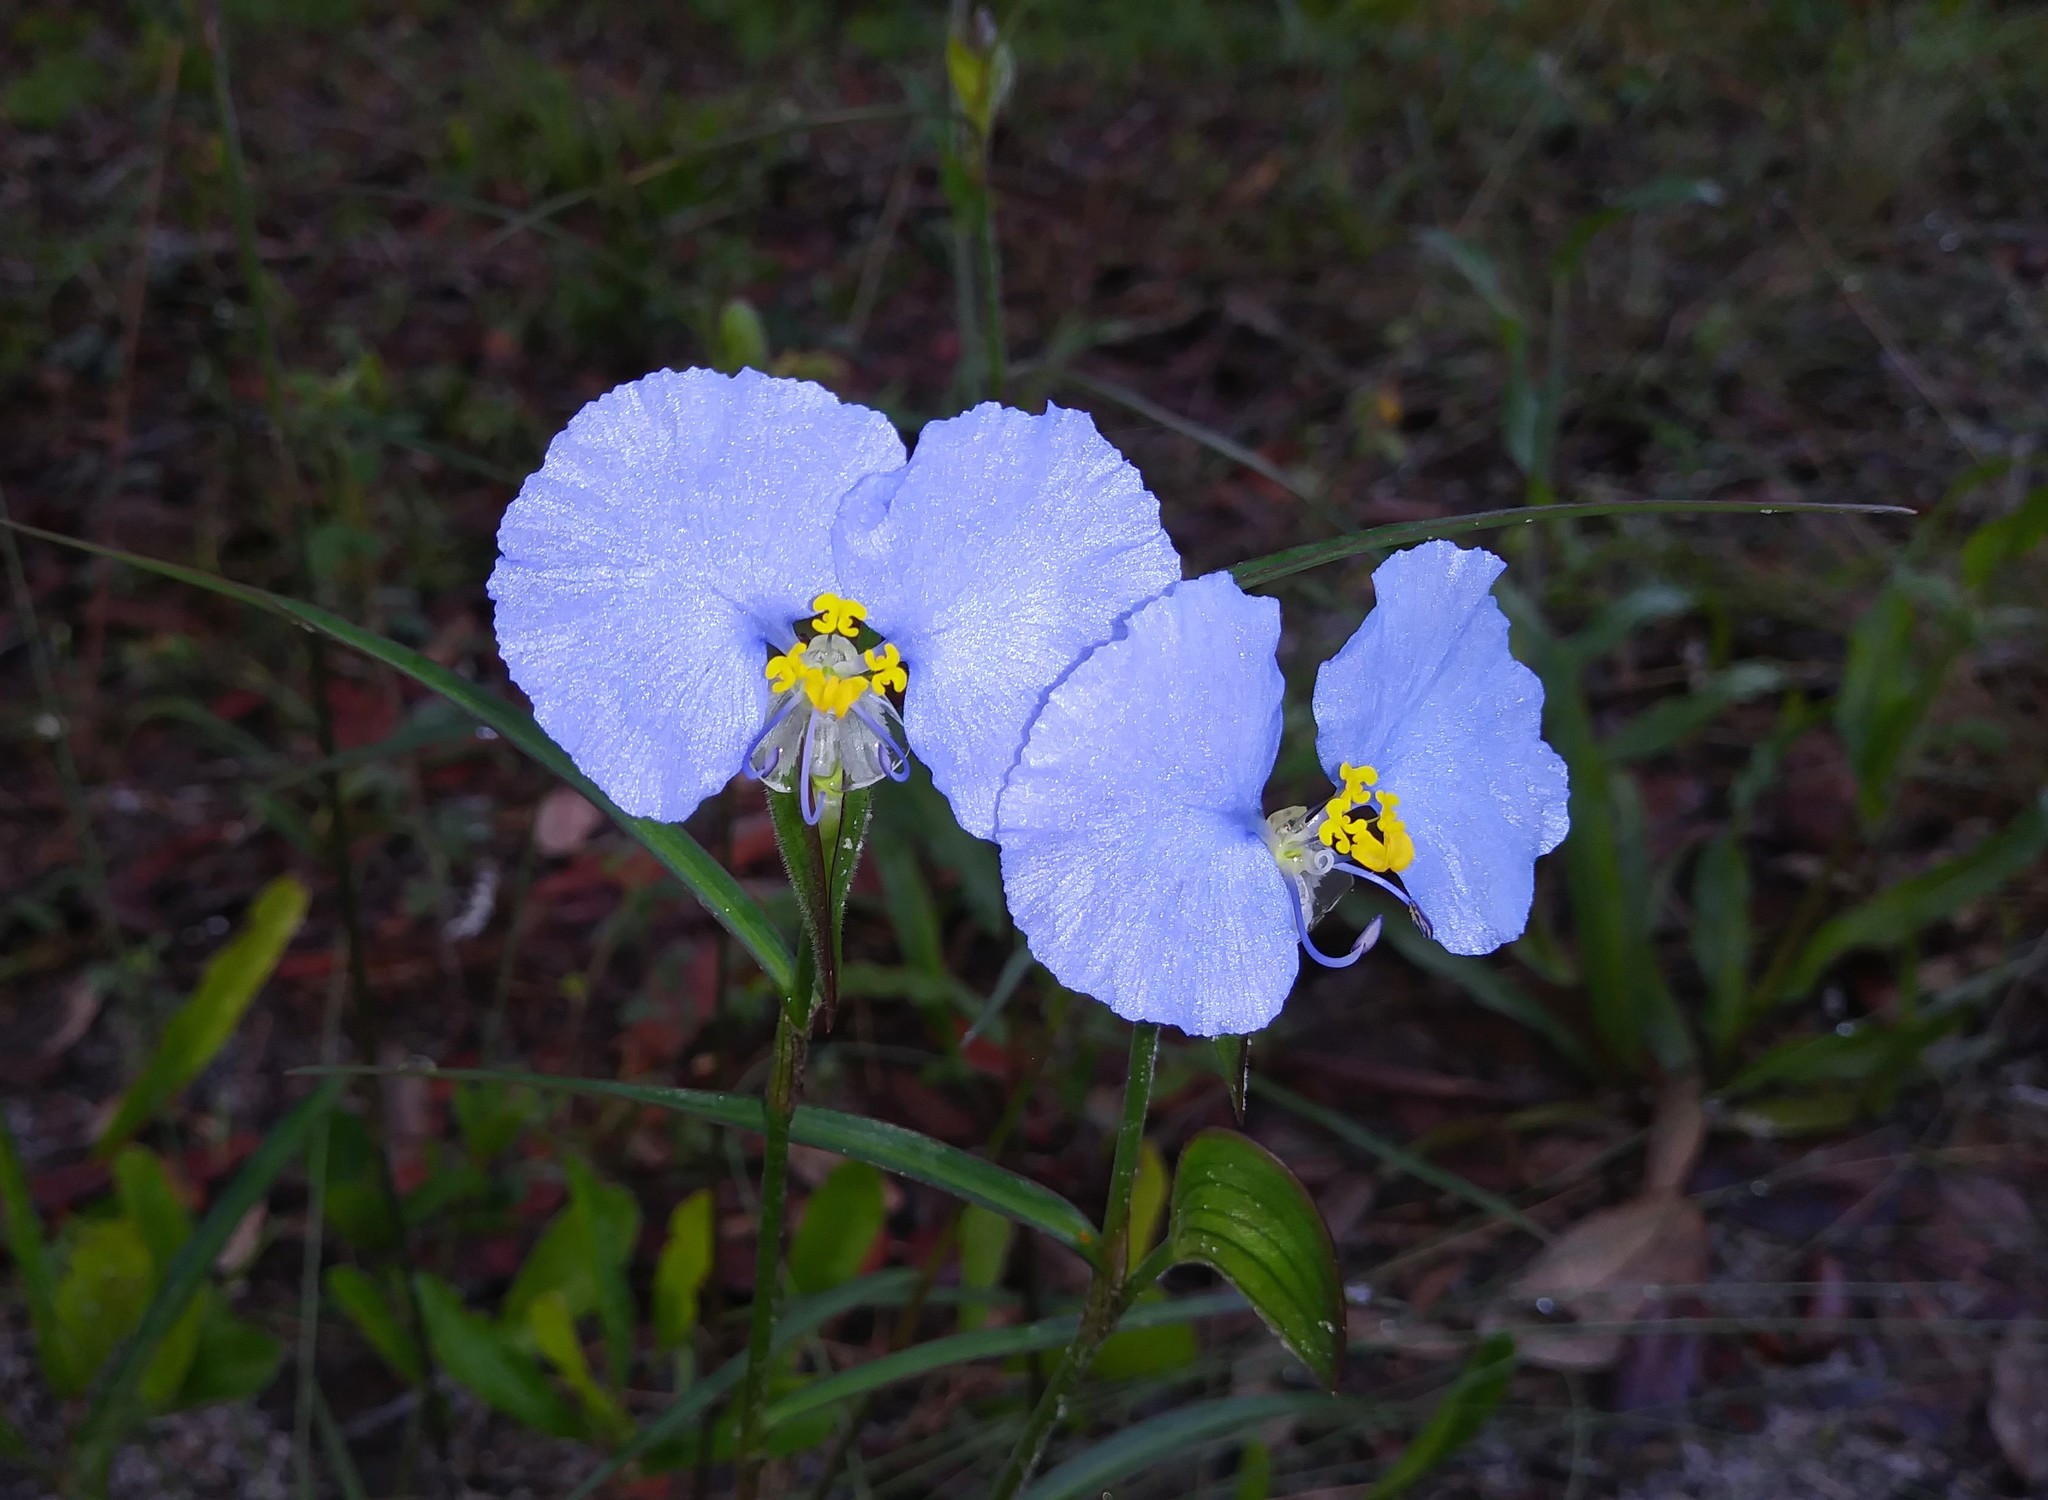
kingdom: Plantae
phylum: Tracheophyta
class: Liliopsida
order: Commelinales
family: Commelinaceae
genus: Commelina
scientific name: Commelina erecta
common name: Blousel blommetjie
